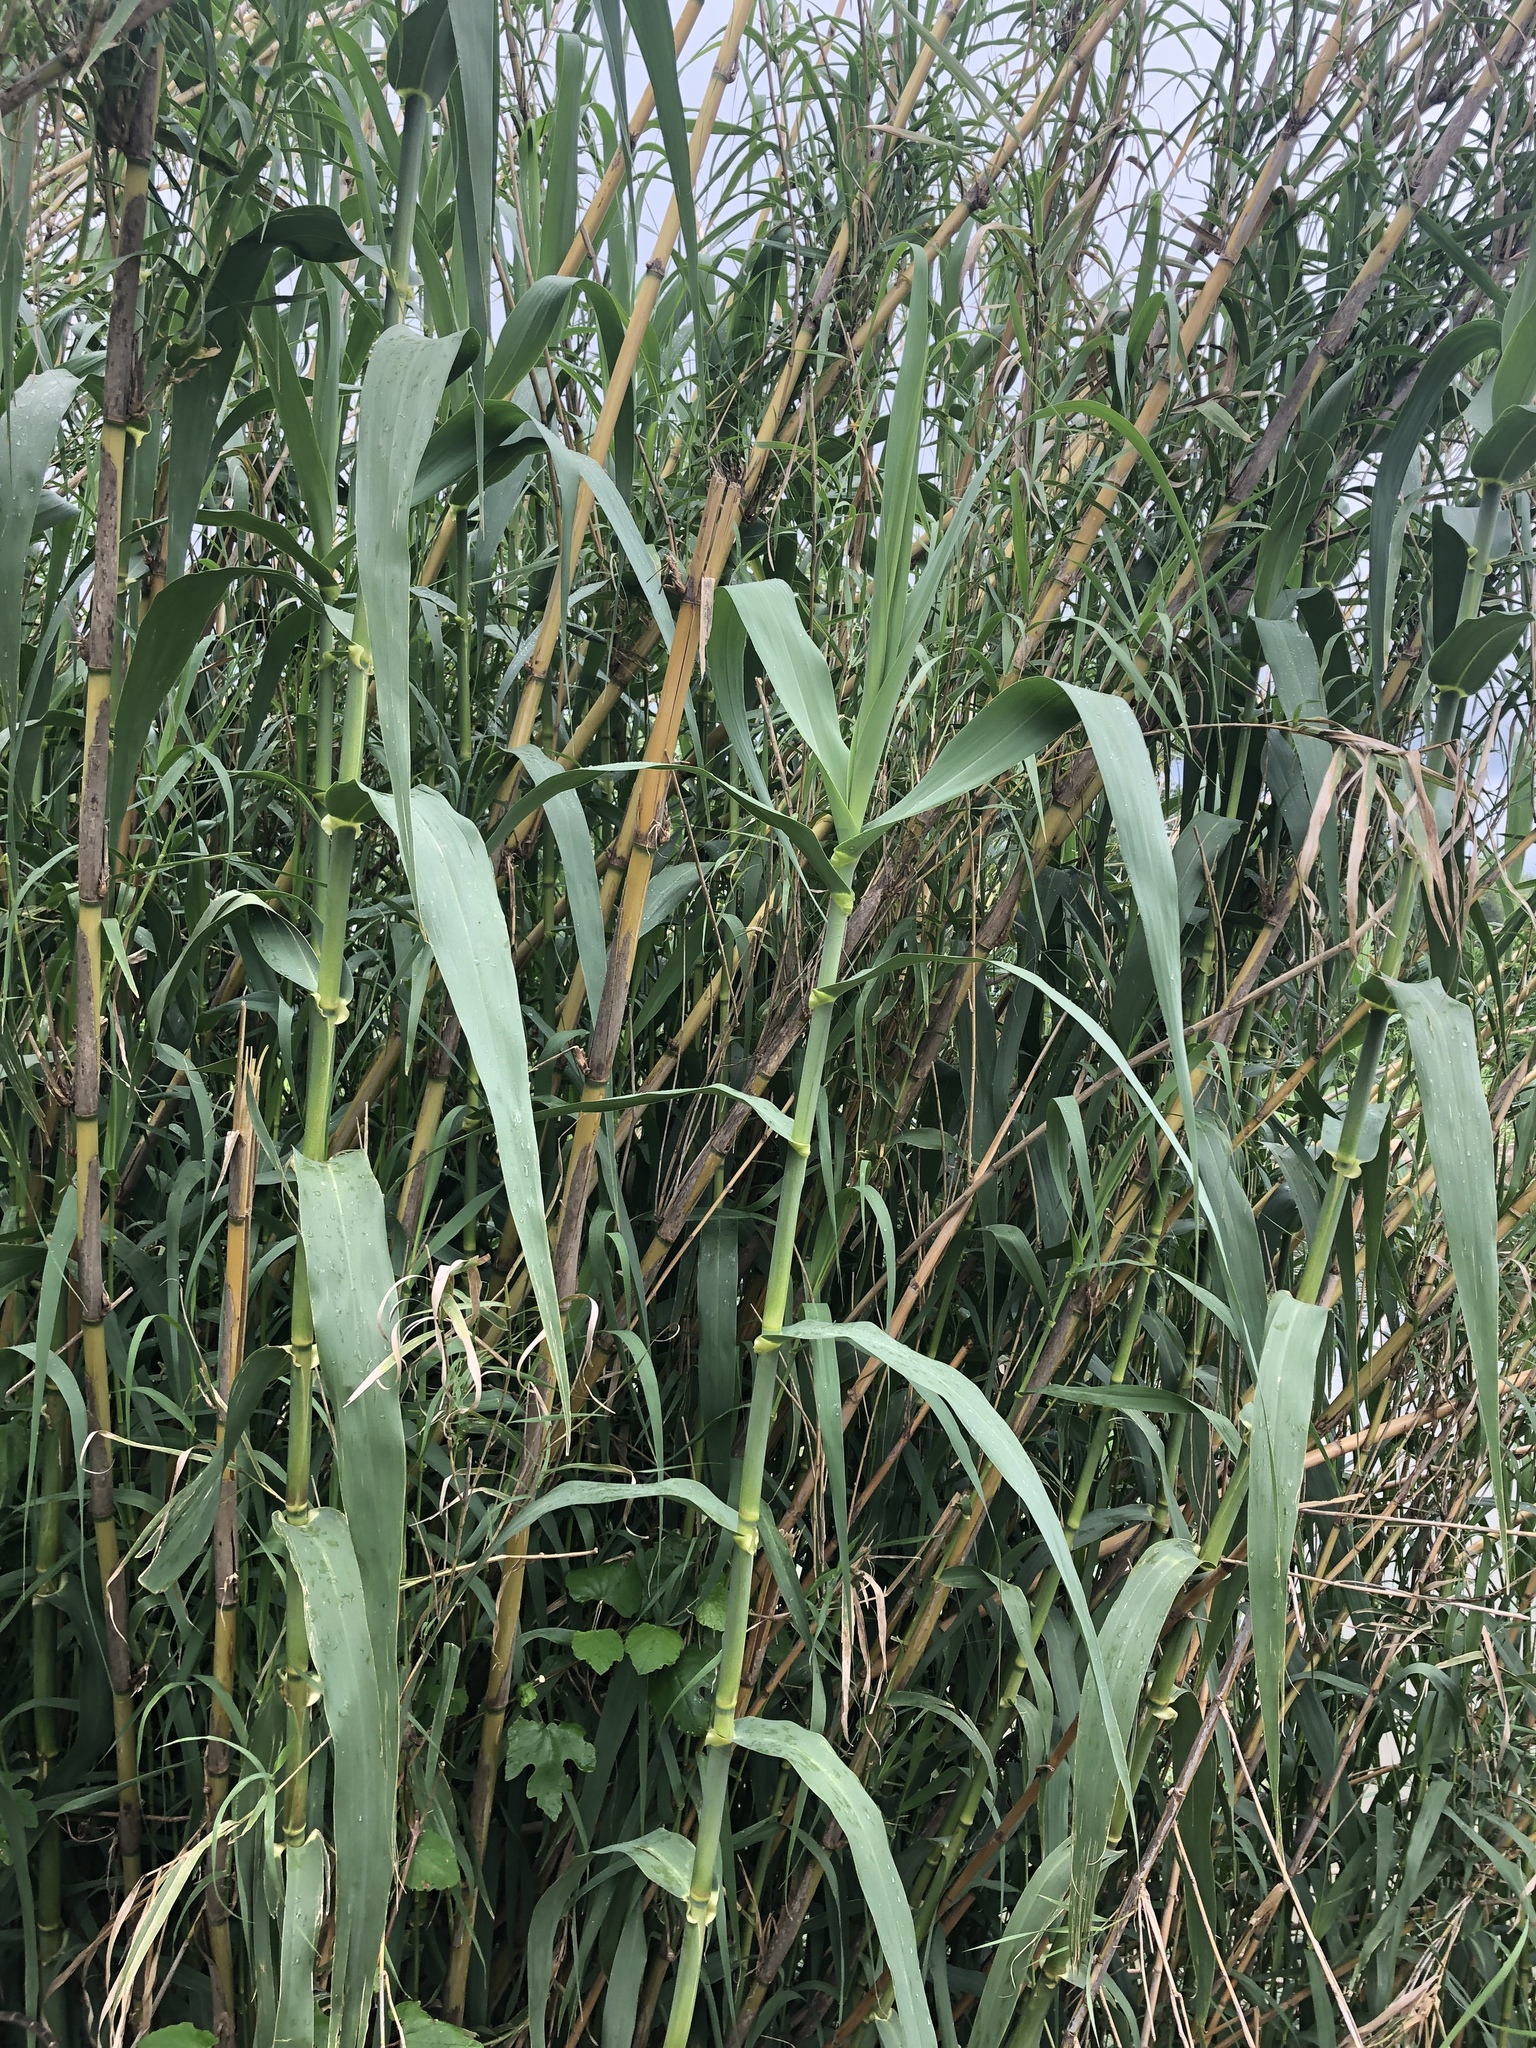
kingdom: Plantae
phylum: Tracheophyta
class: Liliopsida
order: Poales
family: Poaceae
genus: Arundo
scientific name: Arundo donax
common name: Giant reed
